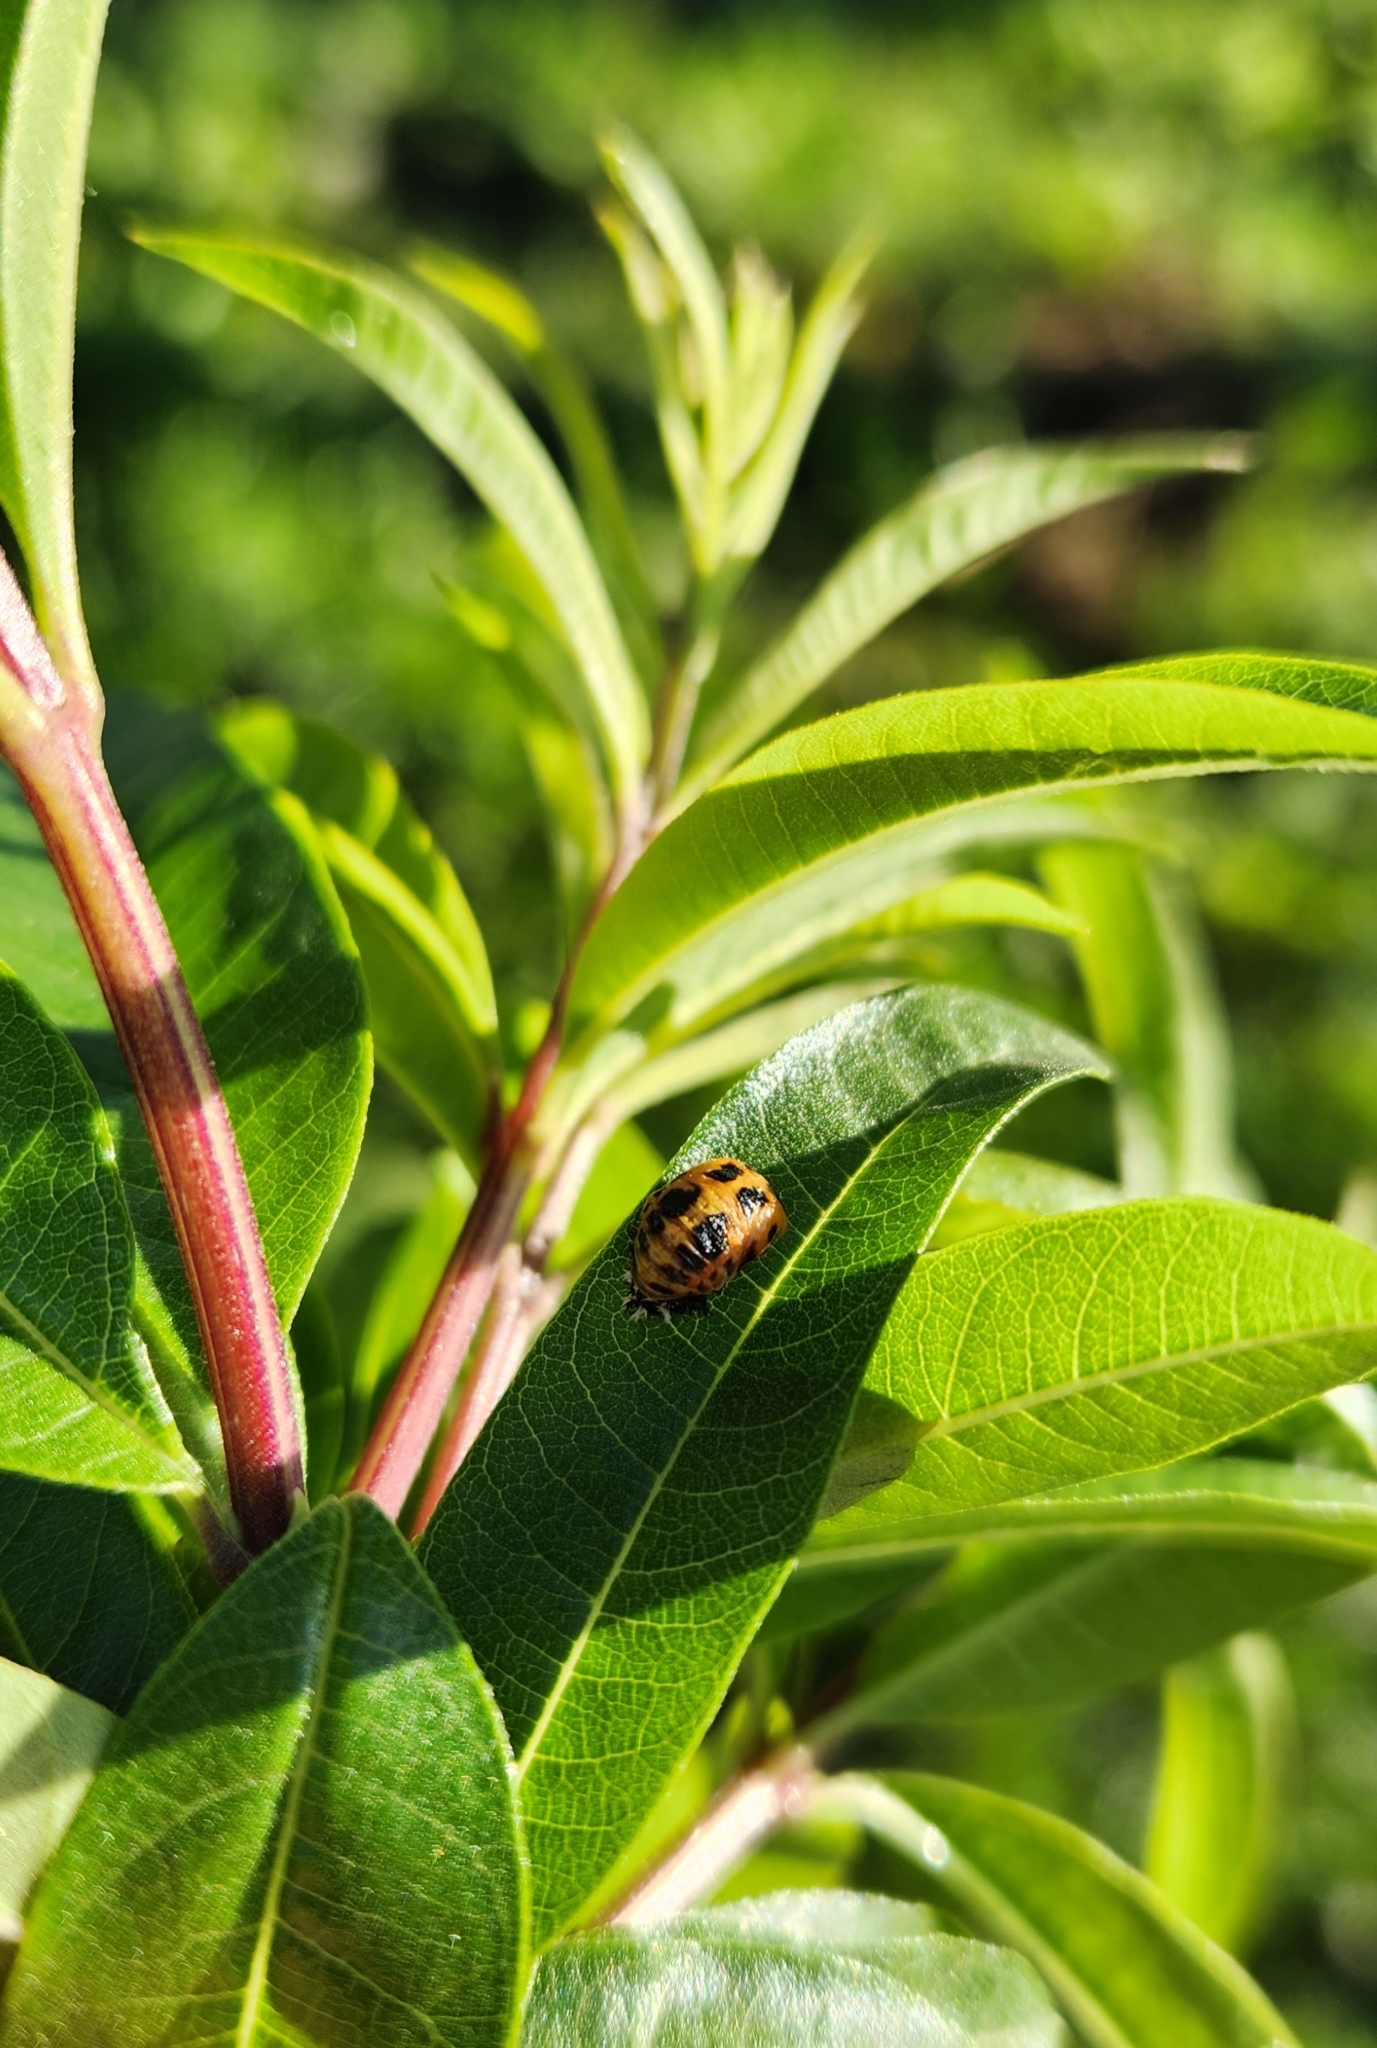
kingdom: Animalia
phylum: Arthropoda
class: Insecta
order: Coleoptera
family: Coccinellidae
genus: Harmonia
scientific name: Harmonia axyridis
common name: Harlequin ladybird
